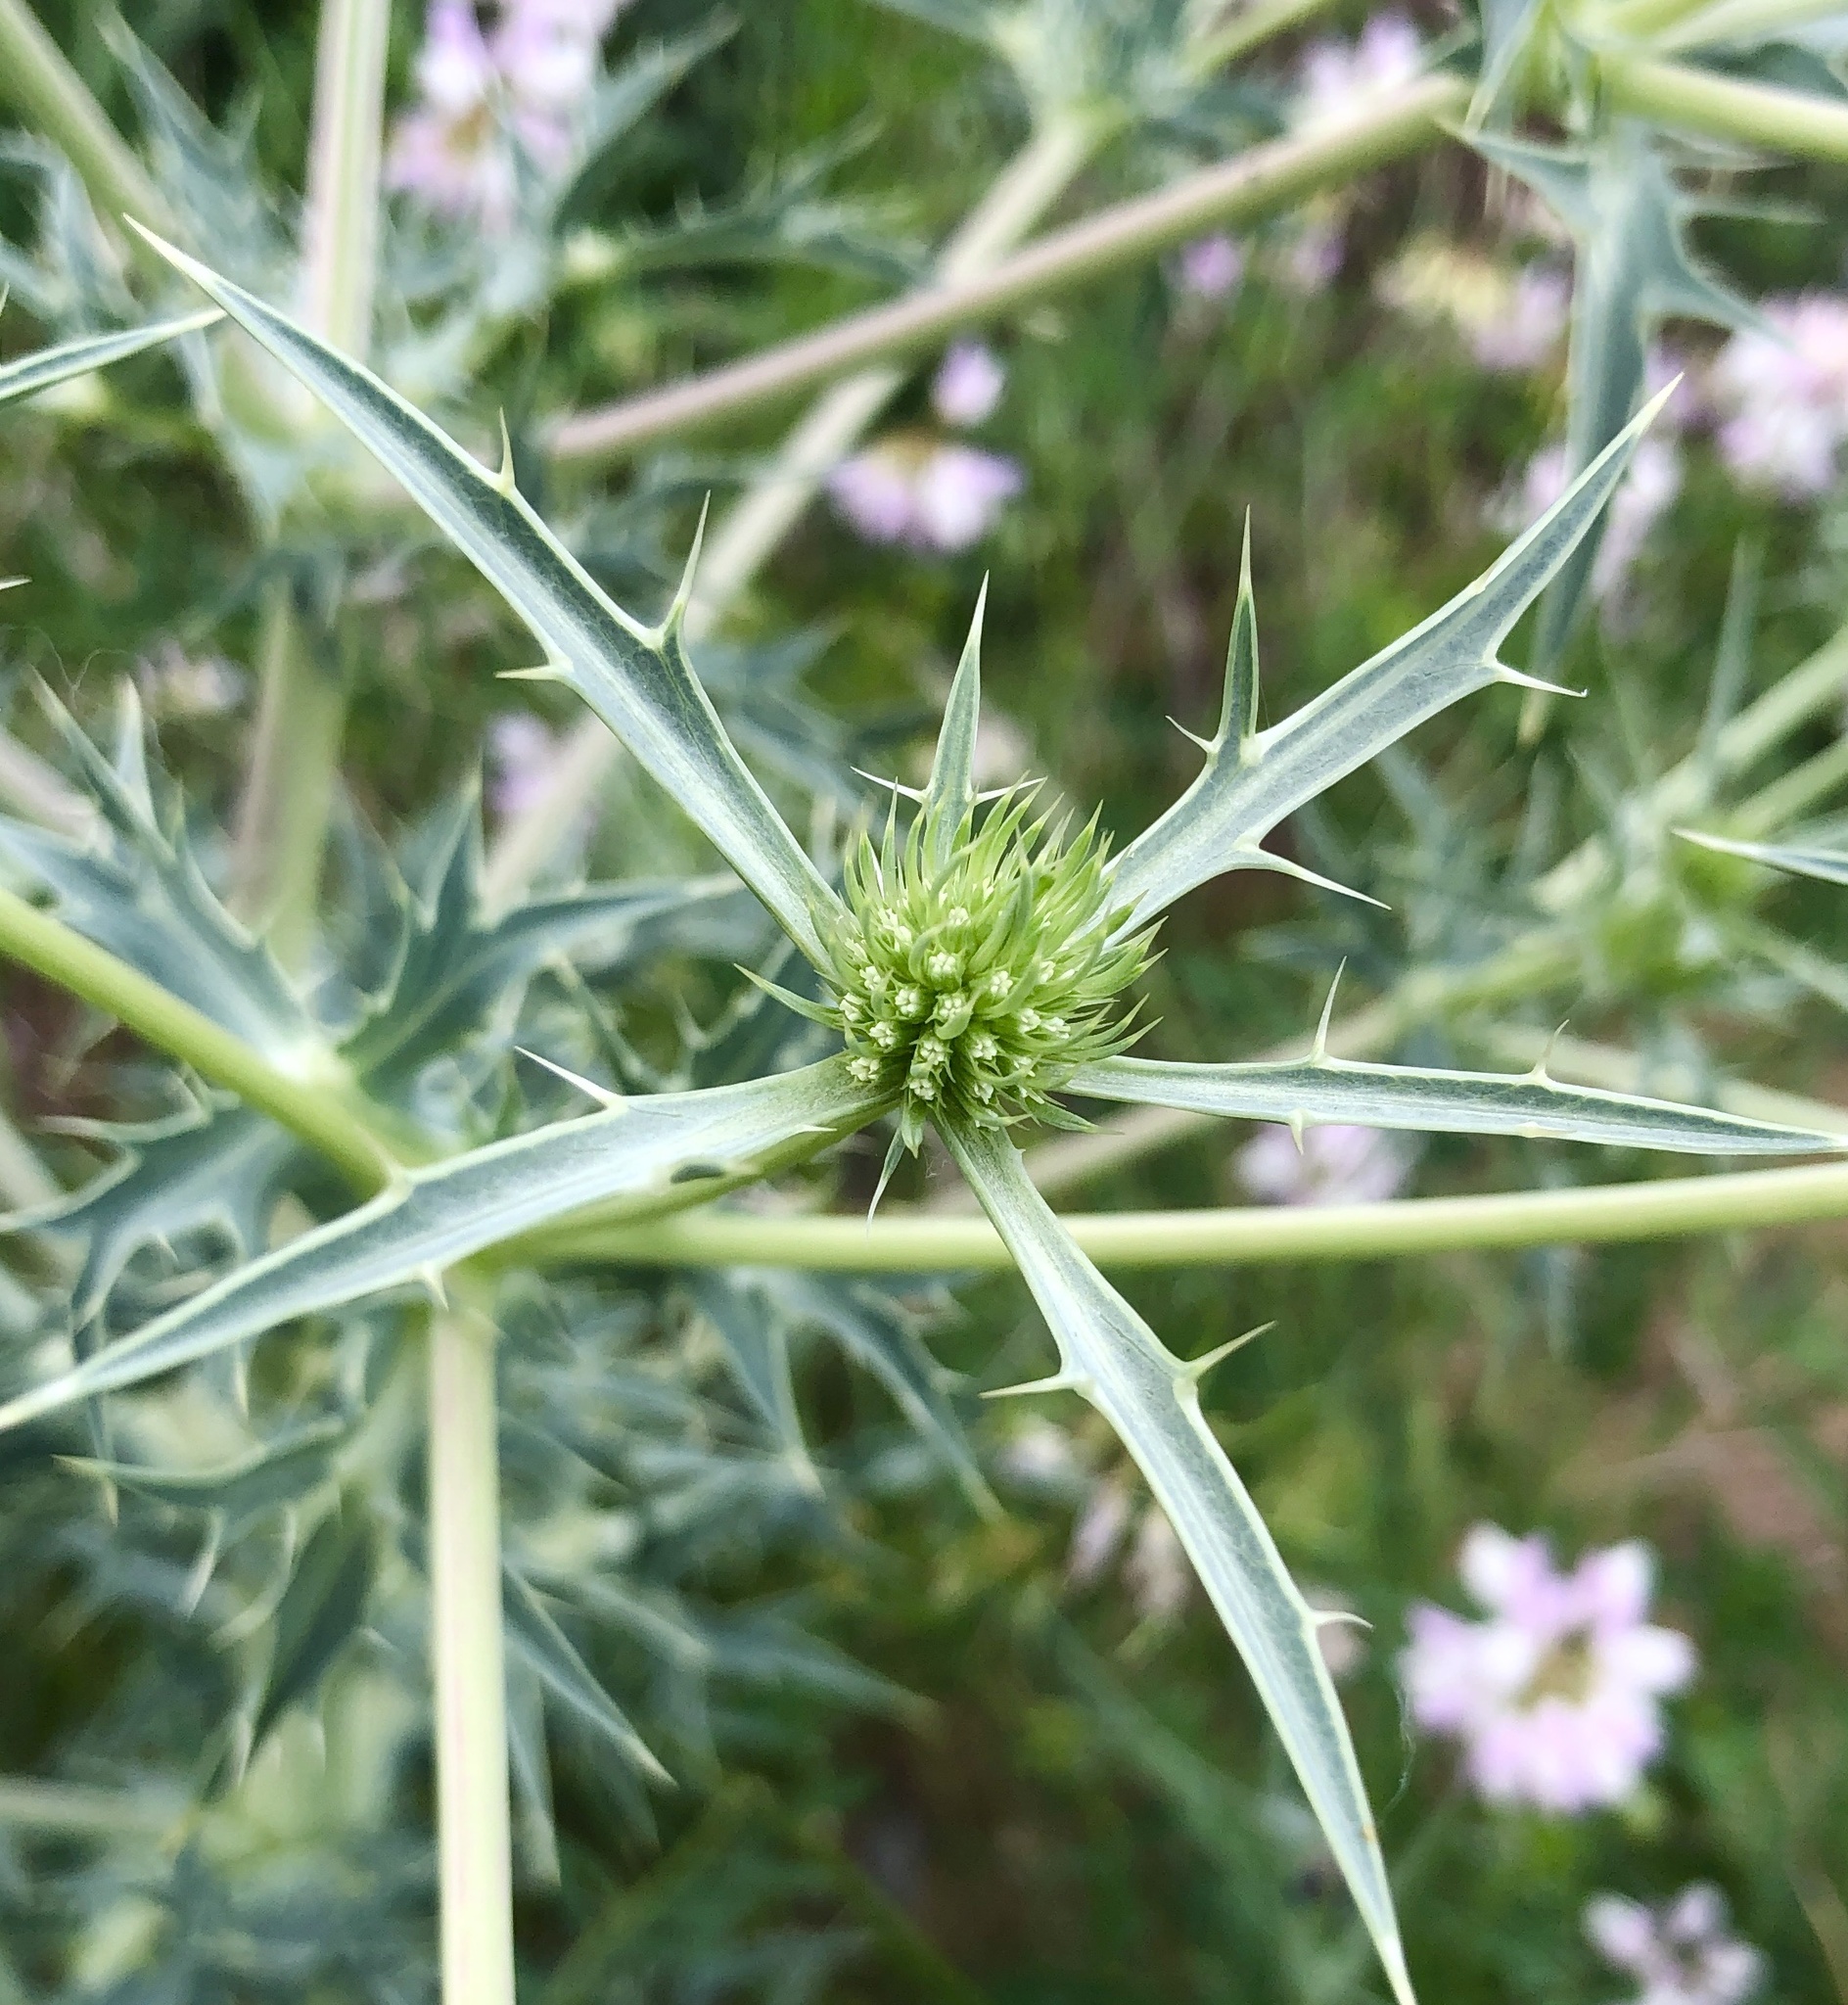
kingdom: Plantae
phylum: Tracheophyta
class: Magnoliopsida
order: Apiales
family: Apiaceae
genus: Eryngium
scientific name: Eryngium campestre
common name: Field eryngo
